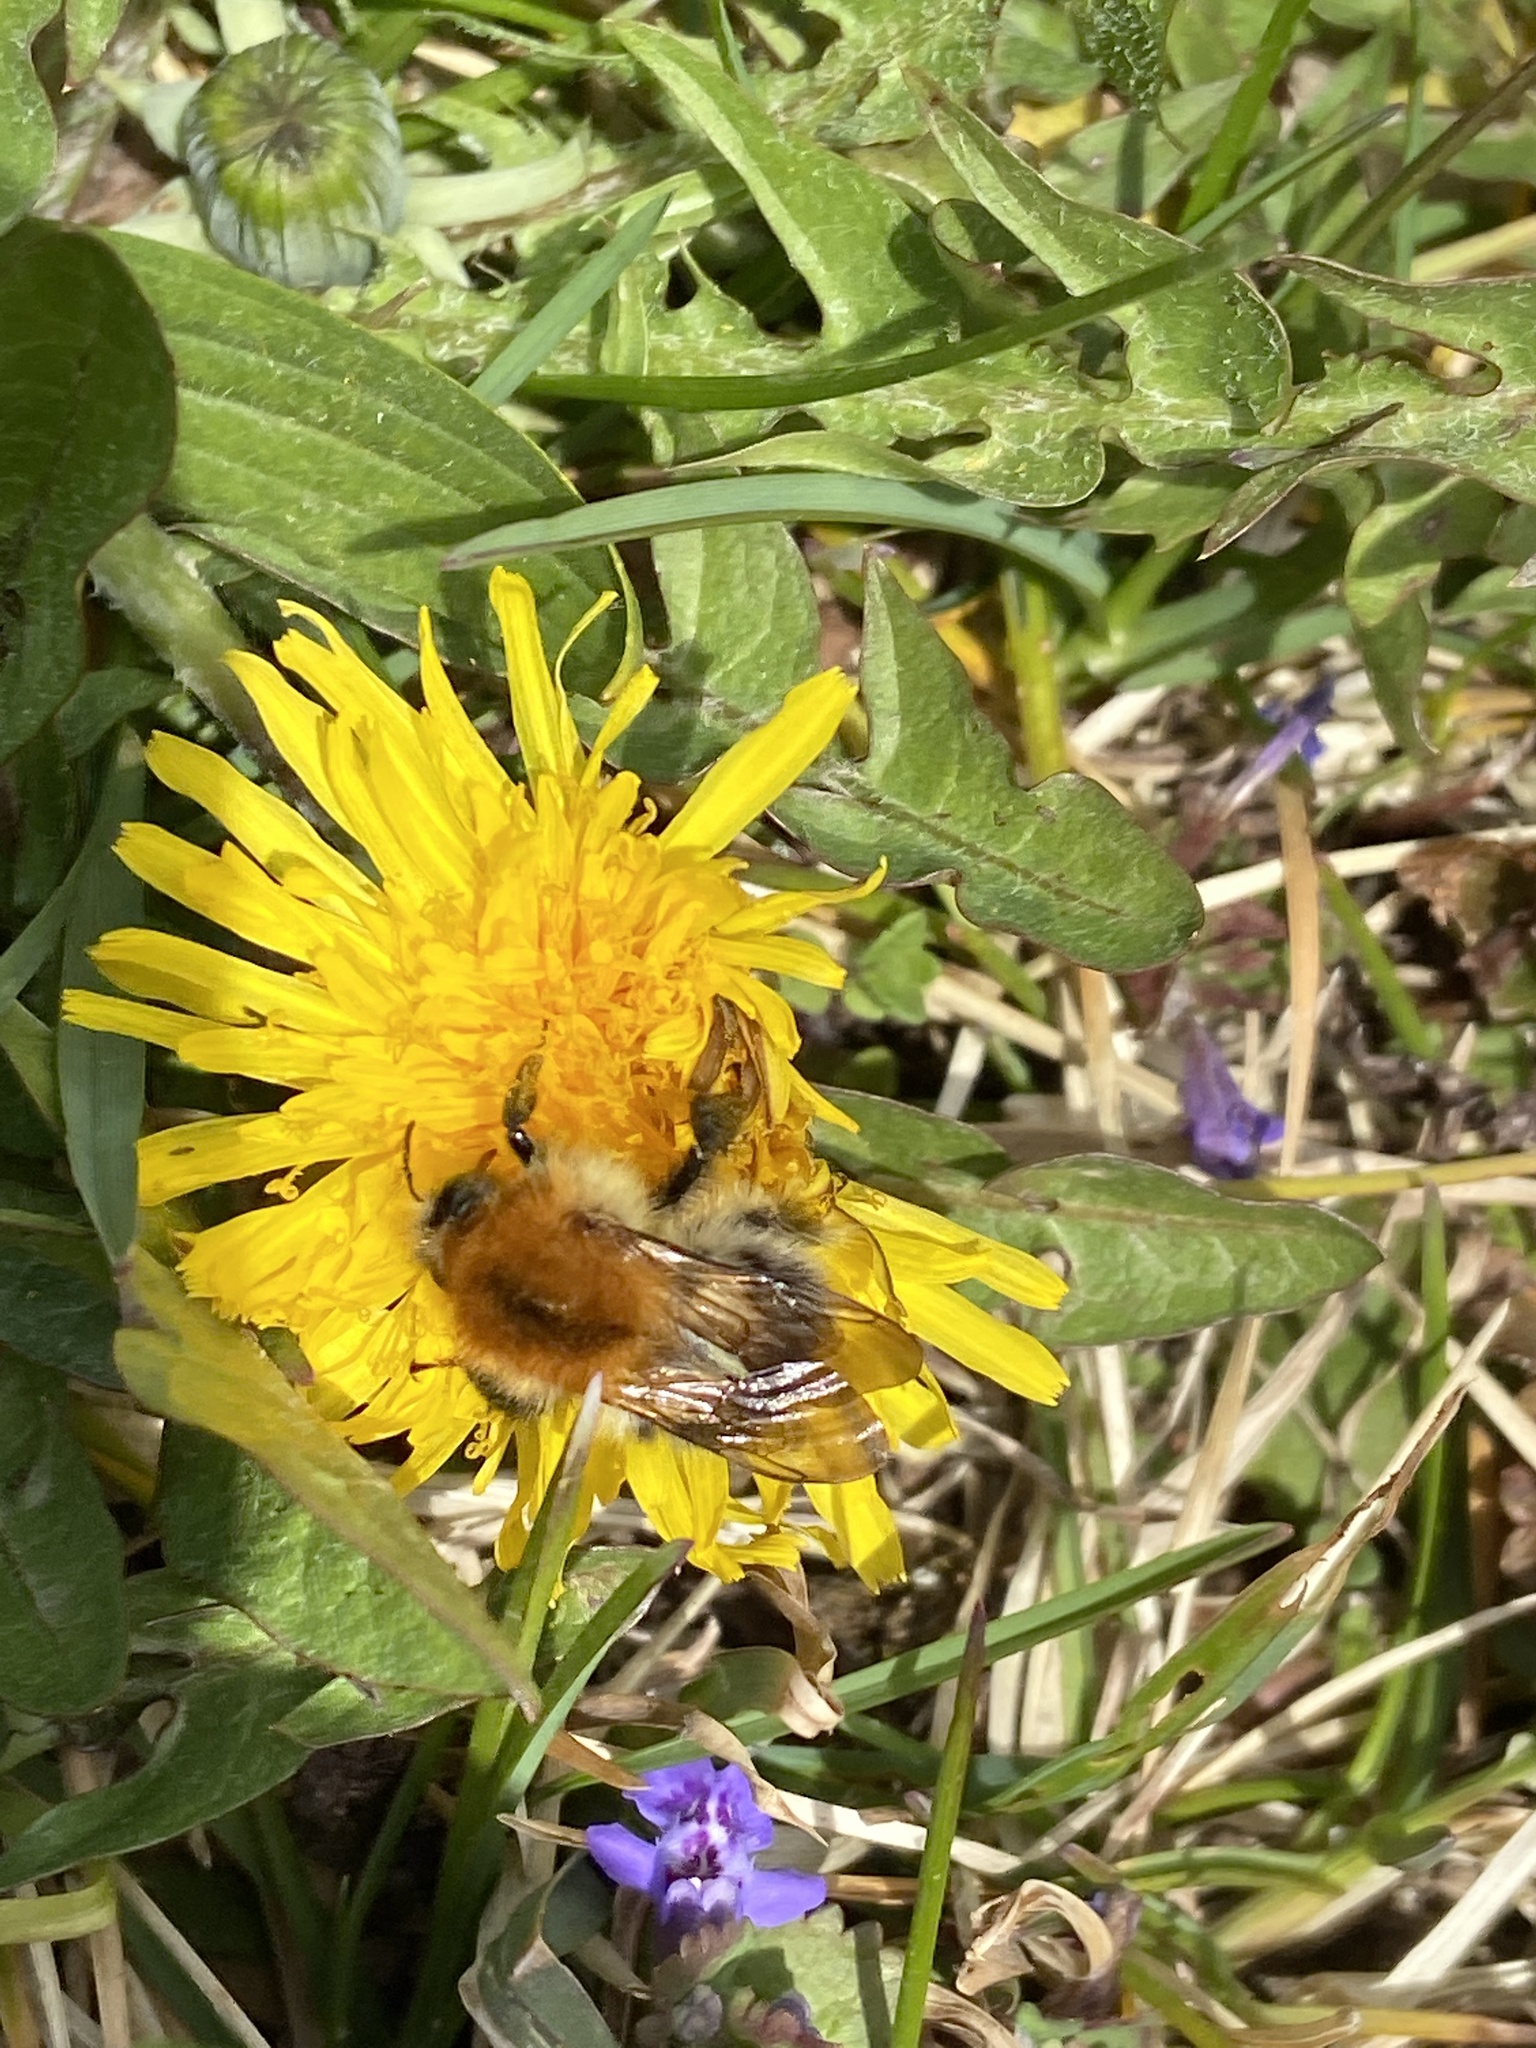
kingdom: Animalia
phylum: Arthropoda
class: Insecta
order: Hymenoptera
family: Apidae
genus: Bombus
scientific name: Bombus pascuorum
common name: Common carder bee
